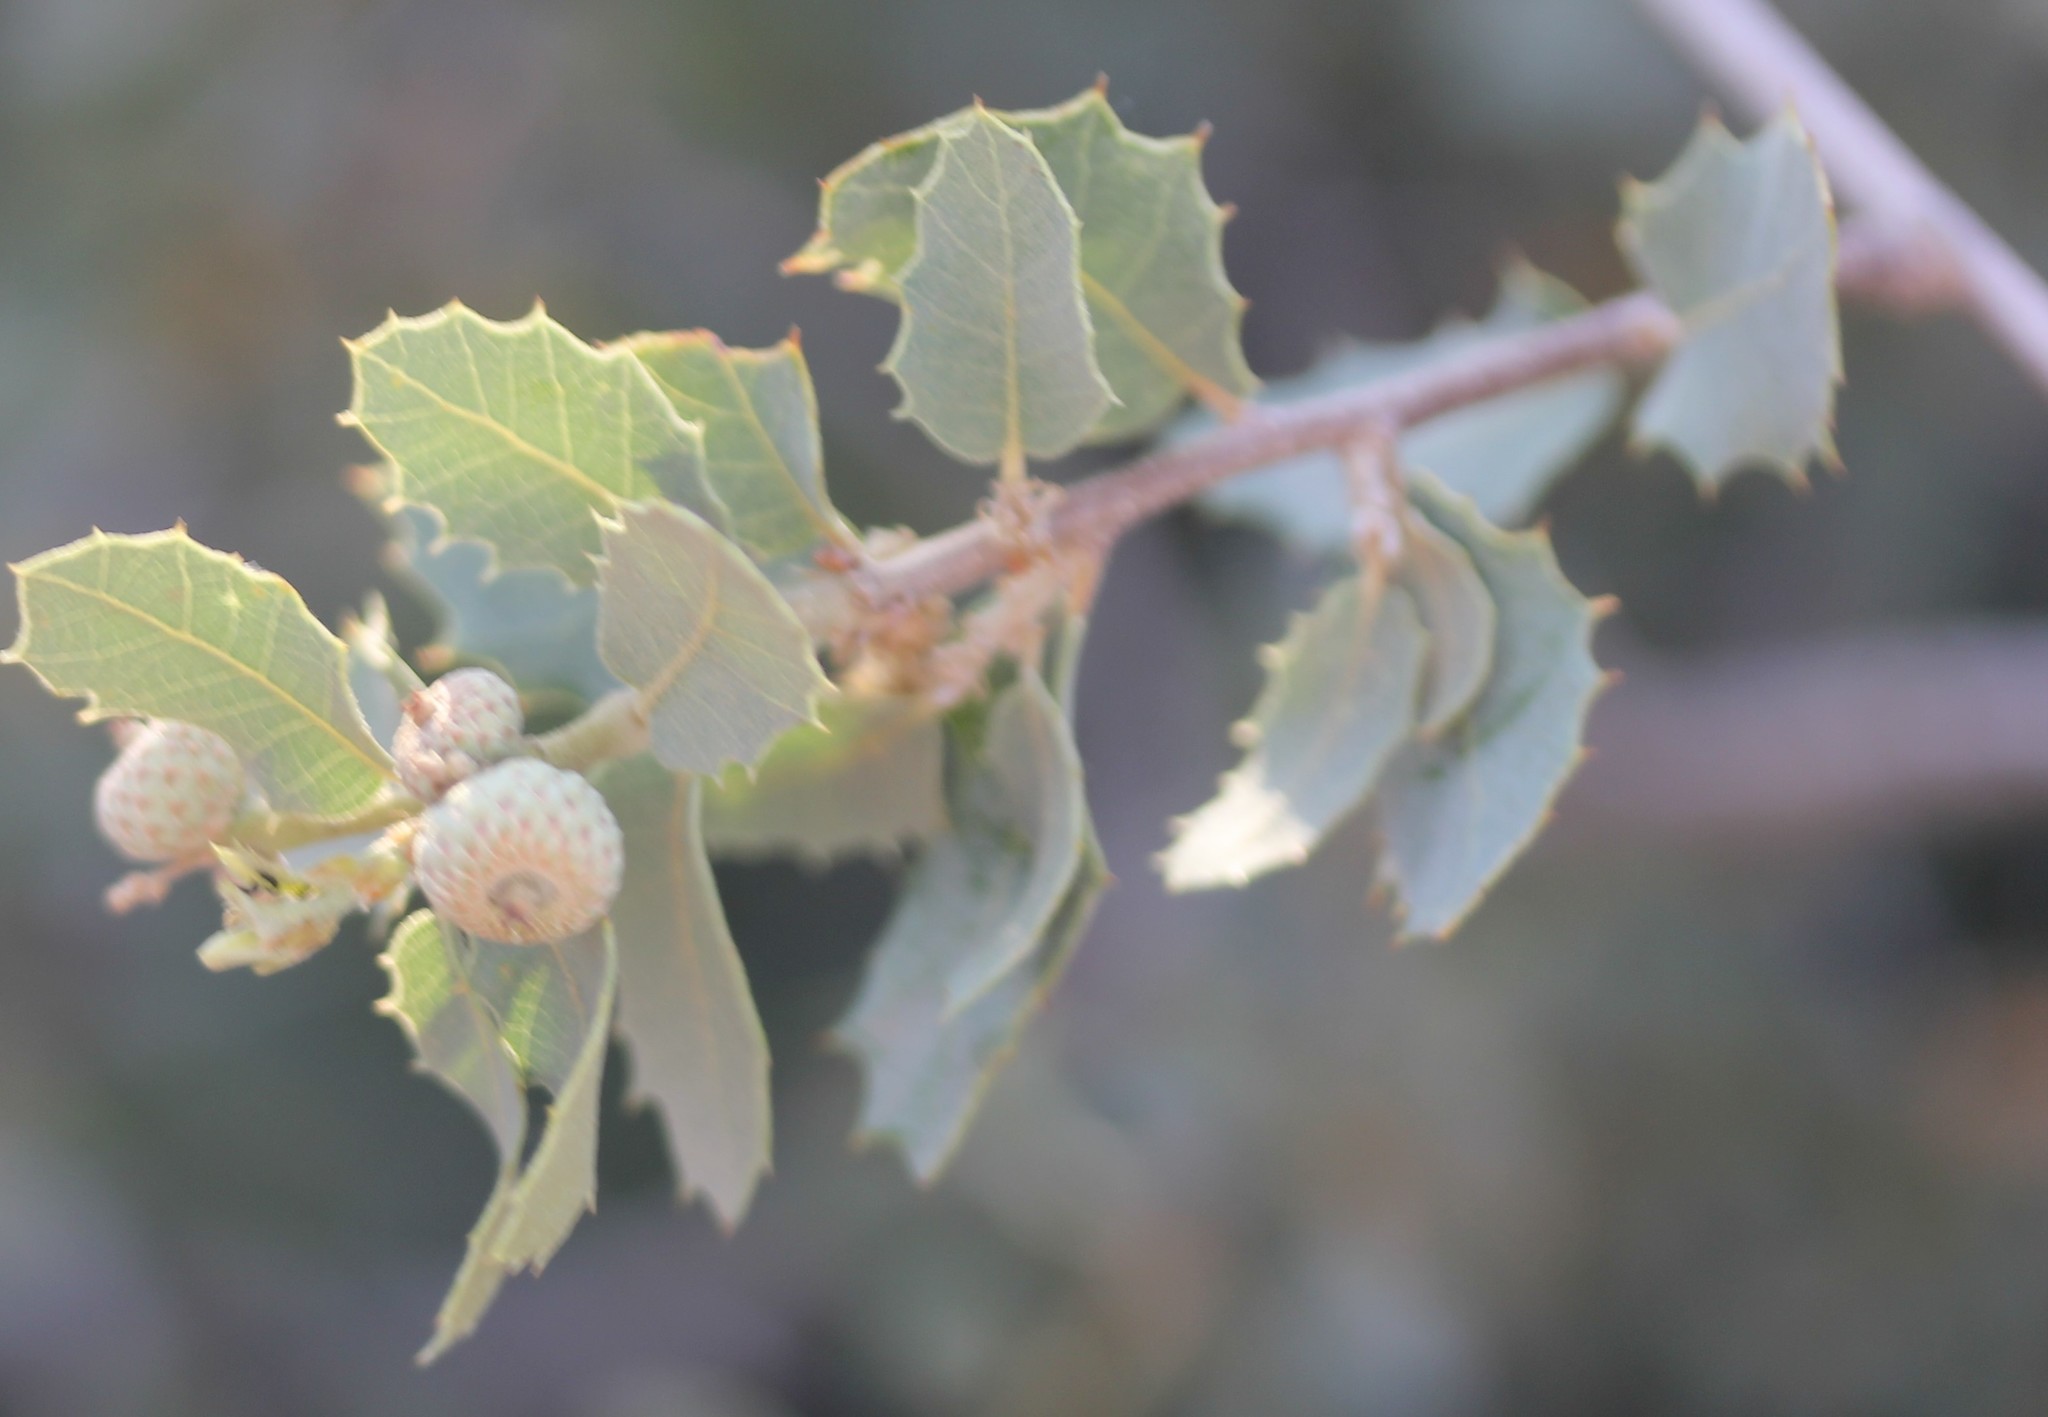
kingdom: Plantae
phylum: Tracheophyta
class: Magnoliopsida
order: Fagales
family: Fagaceae
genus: Quercus
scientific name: Quercus turbinella
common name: Sonoran scrub oak
